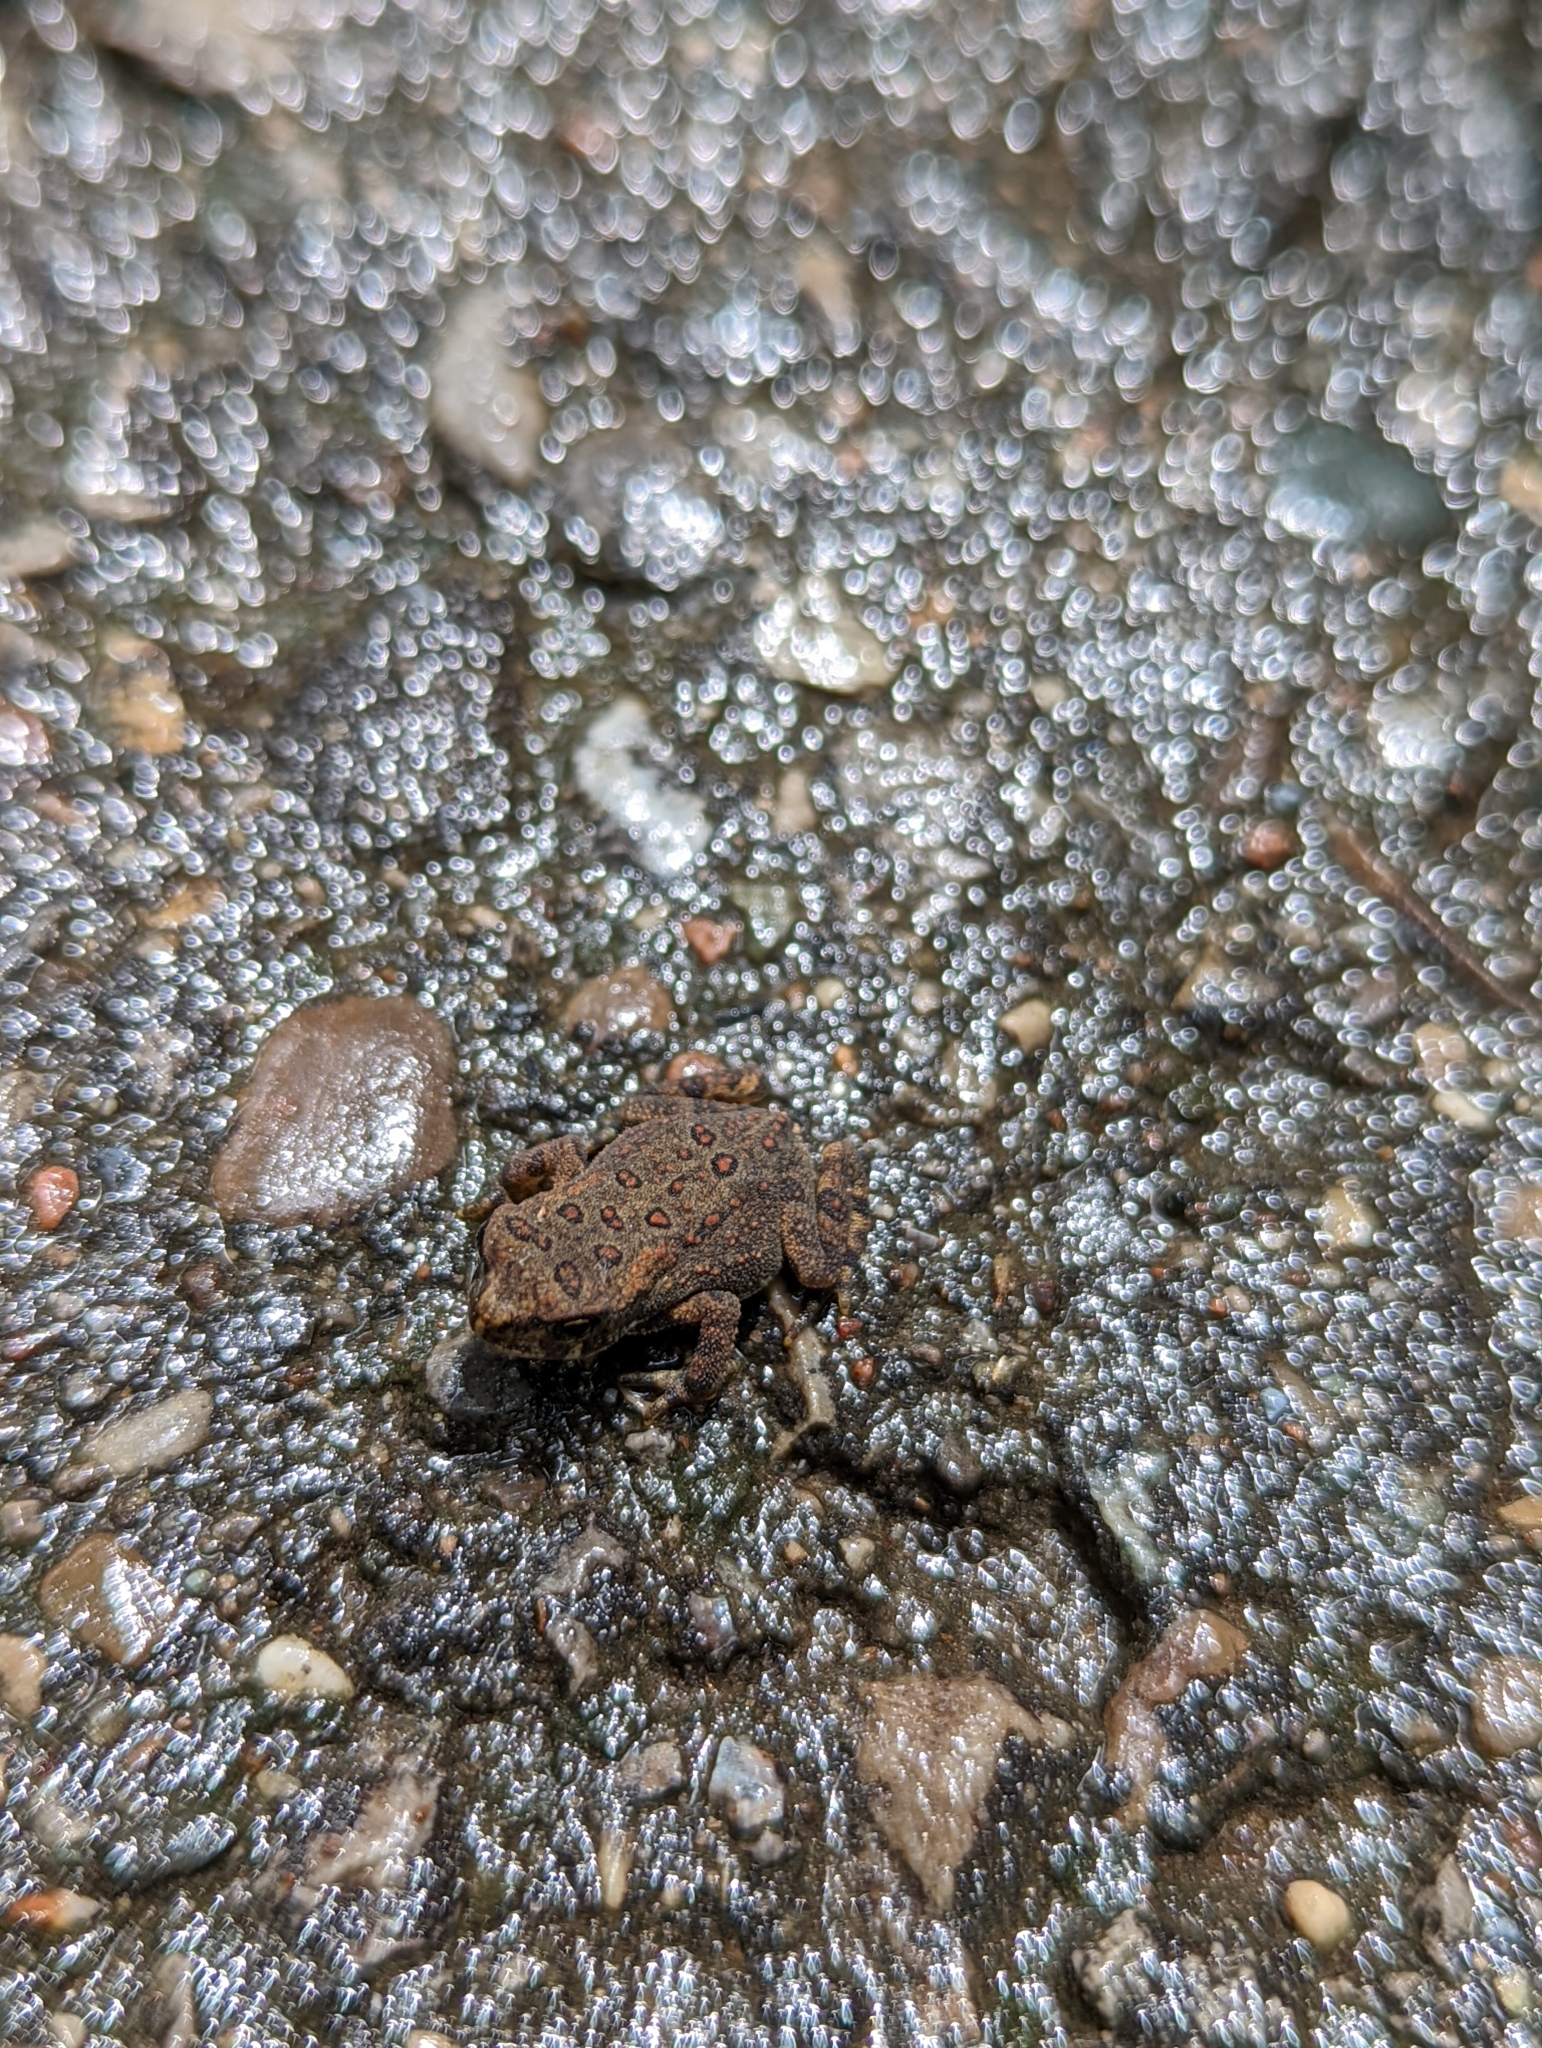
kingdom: Animalia
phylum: Chordata
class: Amphibia
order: Anura
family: Bufonidae
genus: Anaxyrus
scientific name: Anaxyrus americanus
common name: American toad
